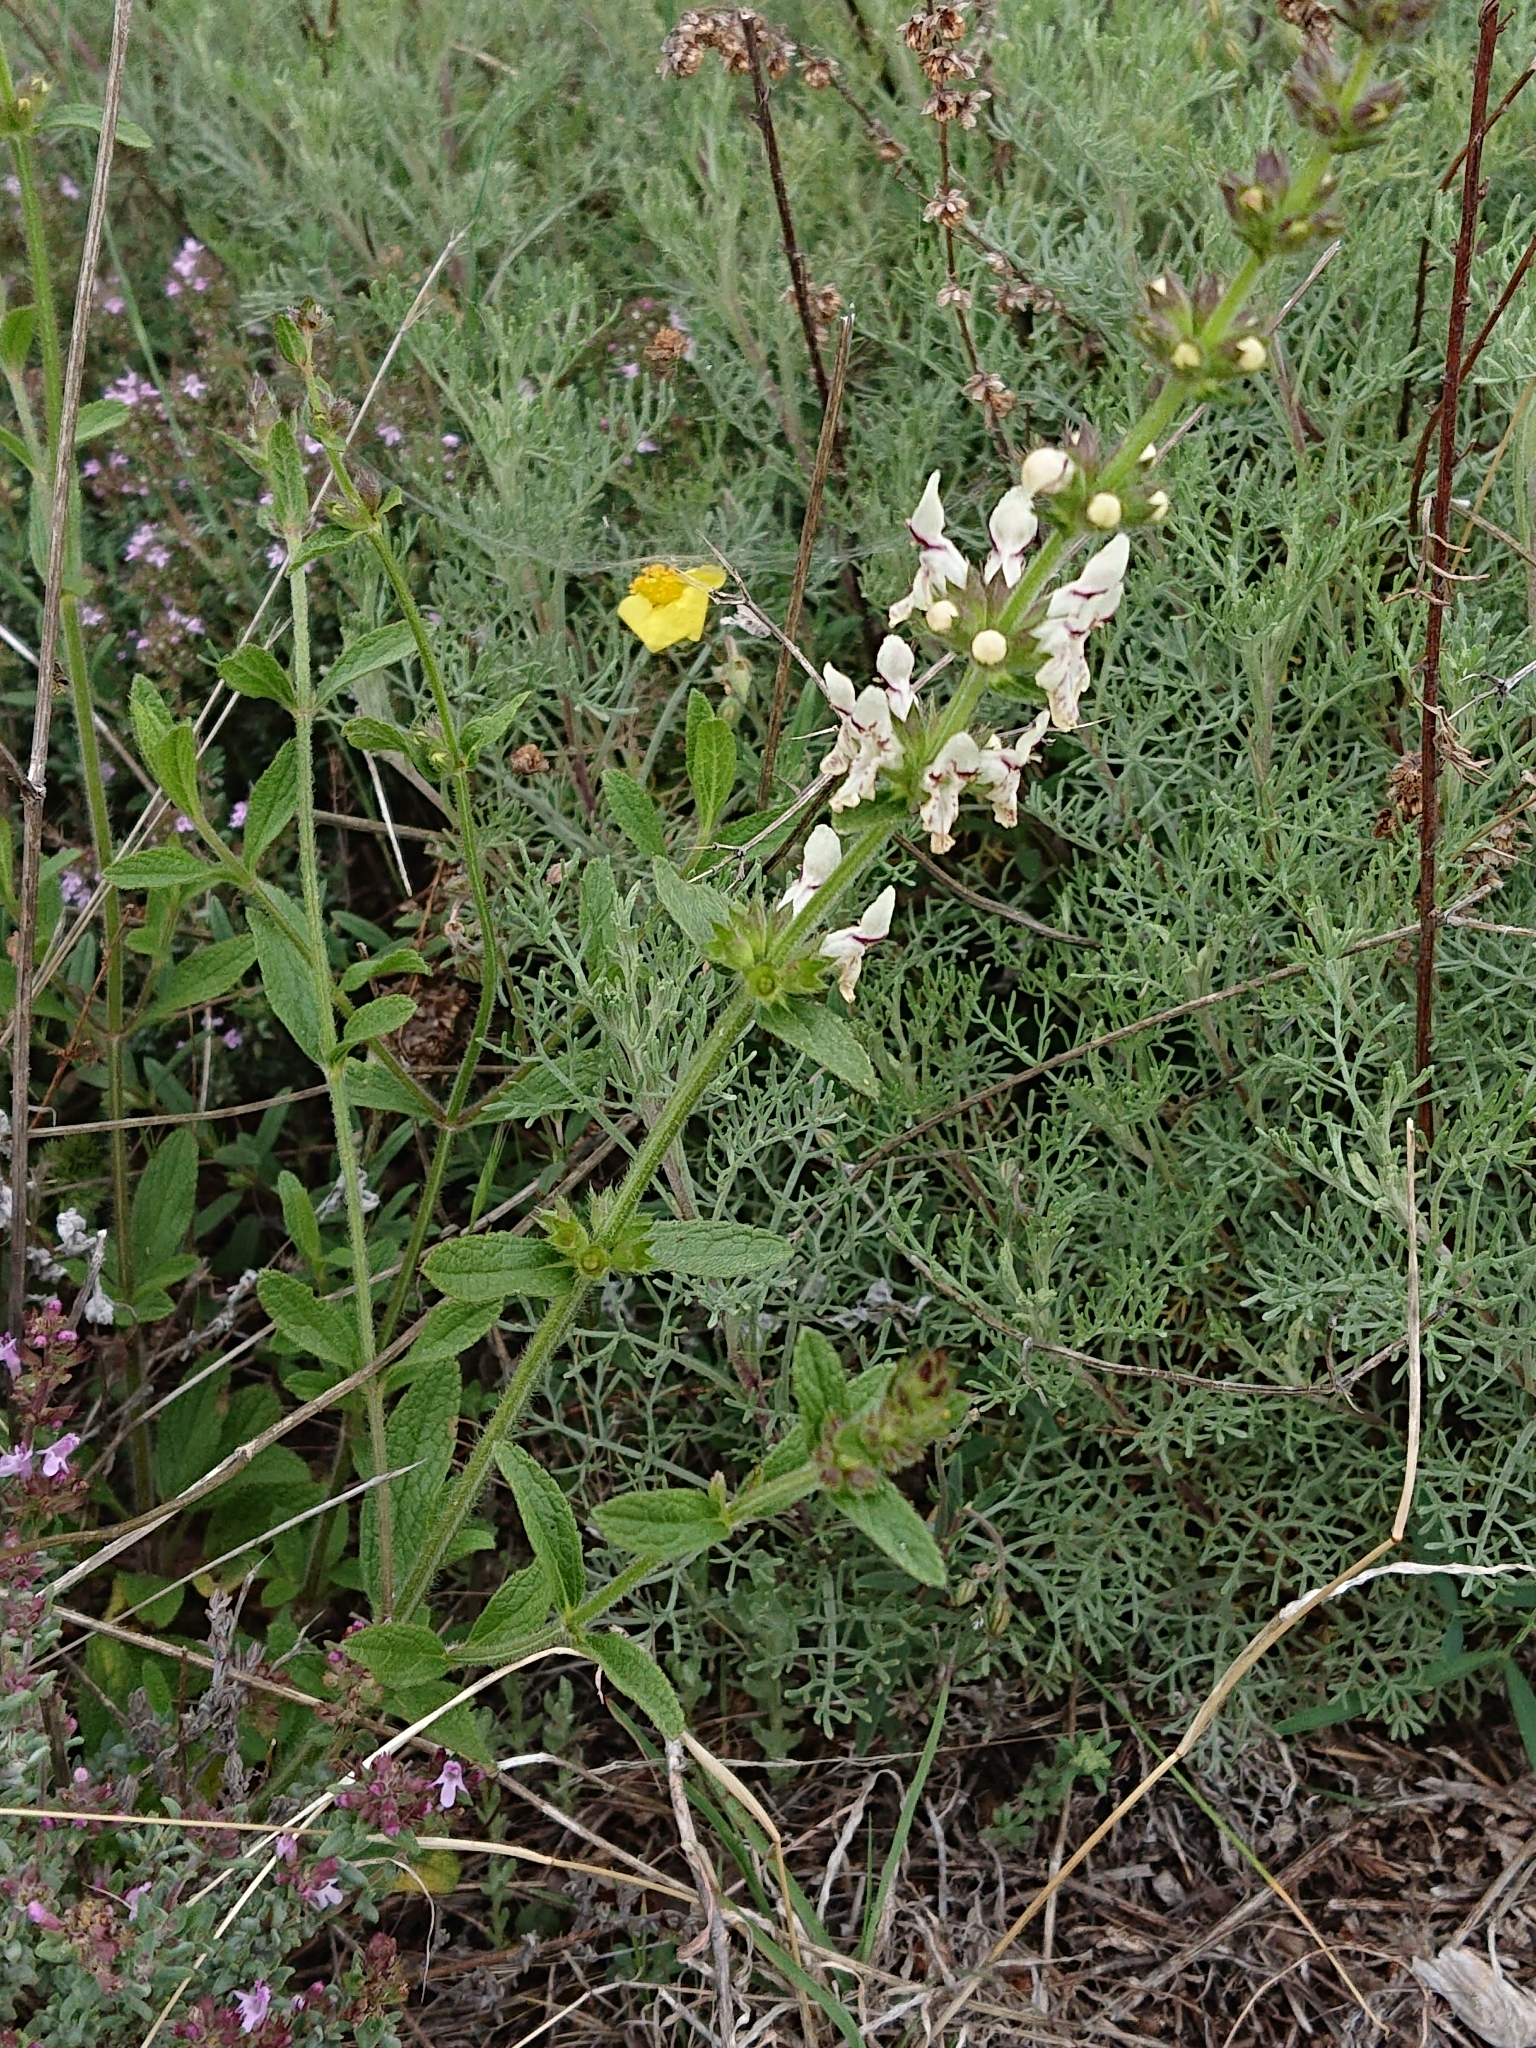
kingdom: Plantae
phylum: Tracheophyta
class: Magnoliopsida
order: Lamiales
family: Lamiaceae
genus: Stachys
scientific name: Stachys recta
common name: Perennial yellow-woundwort
